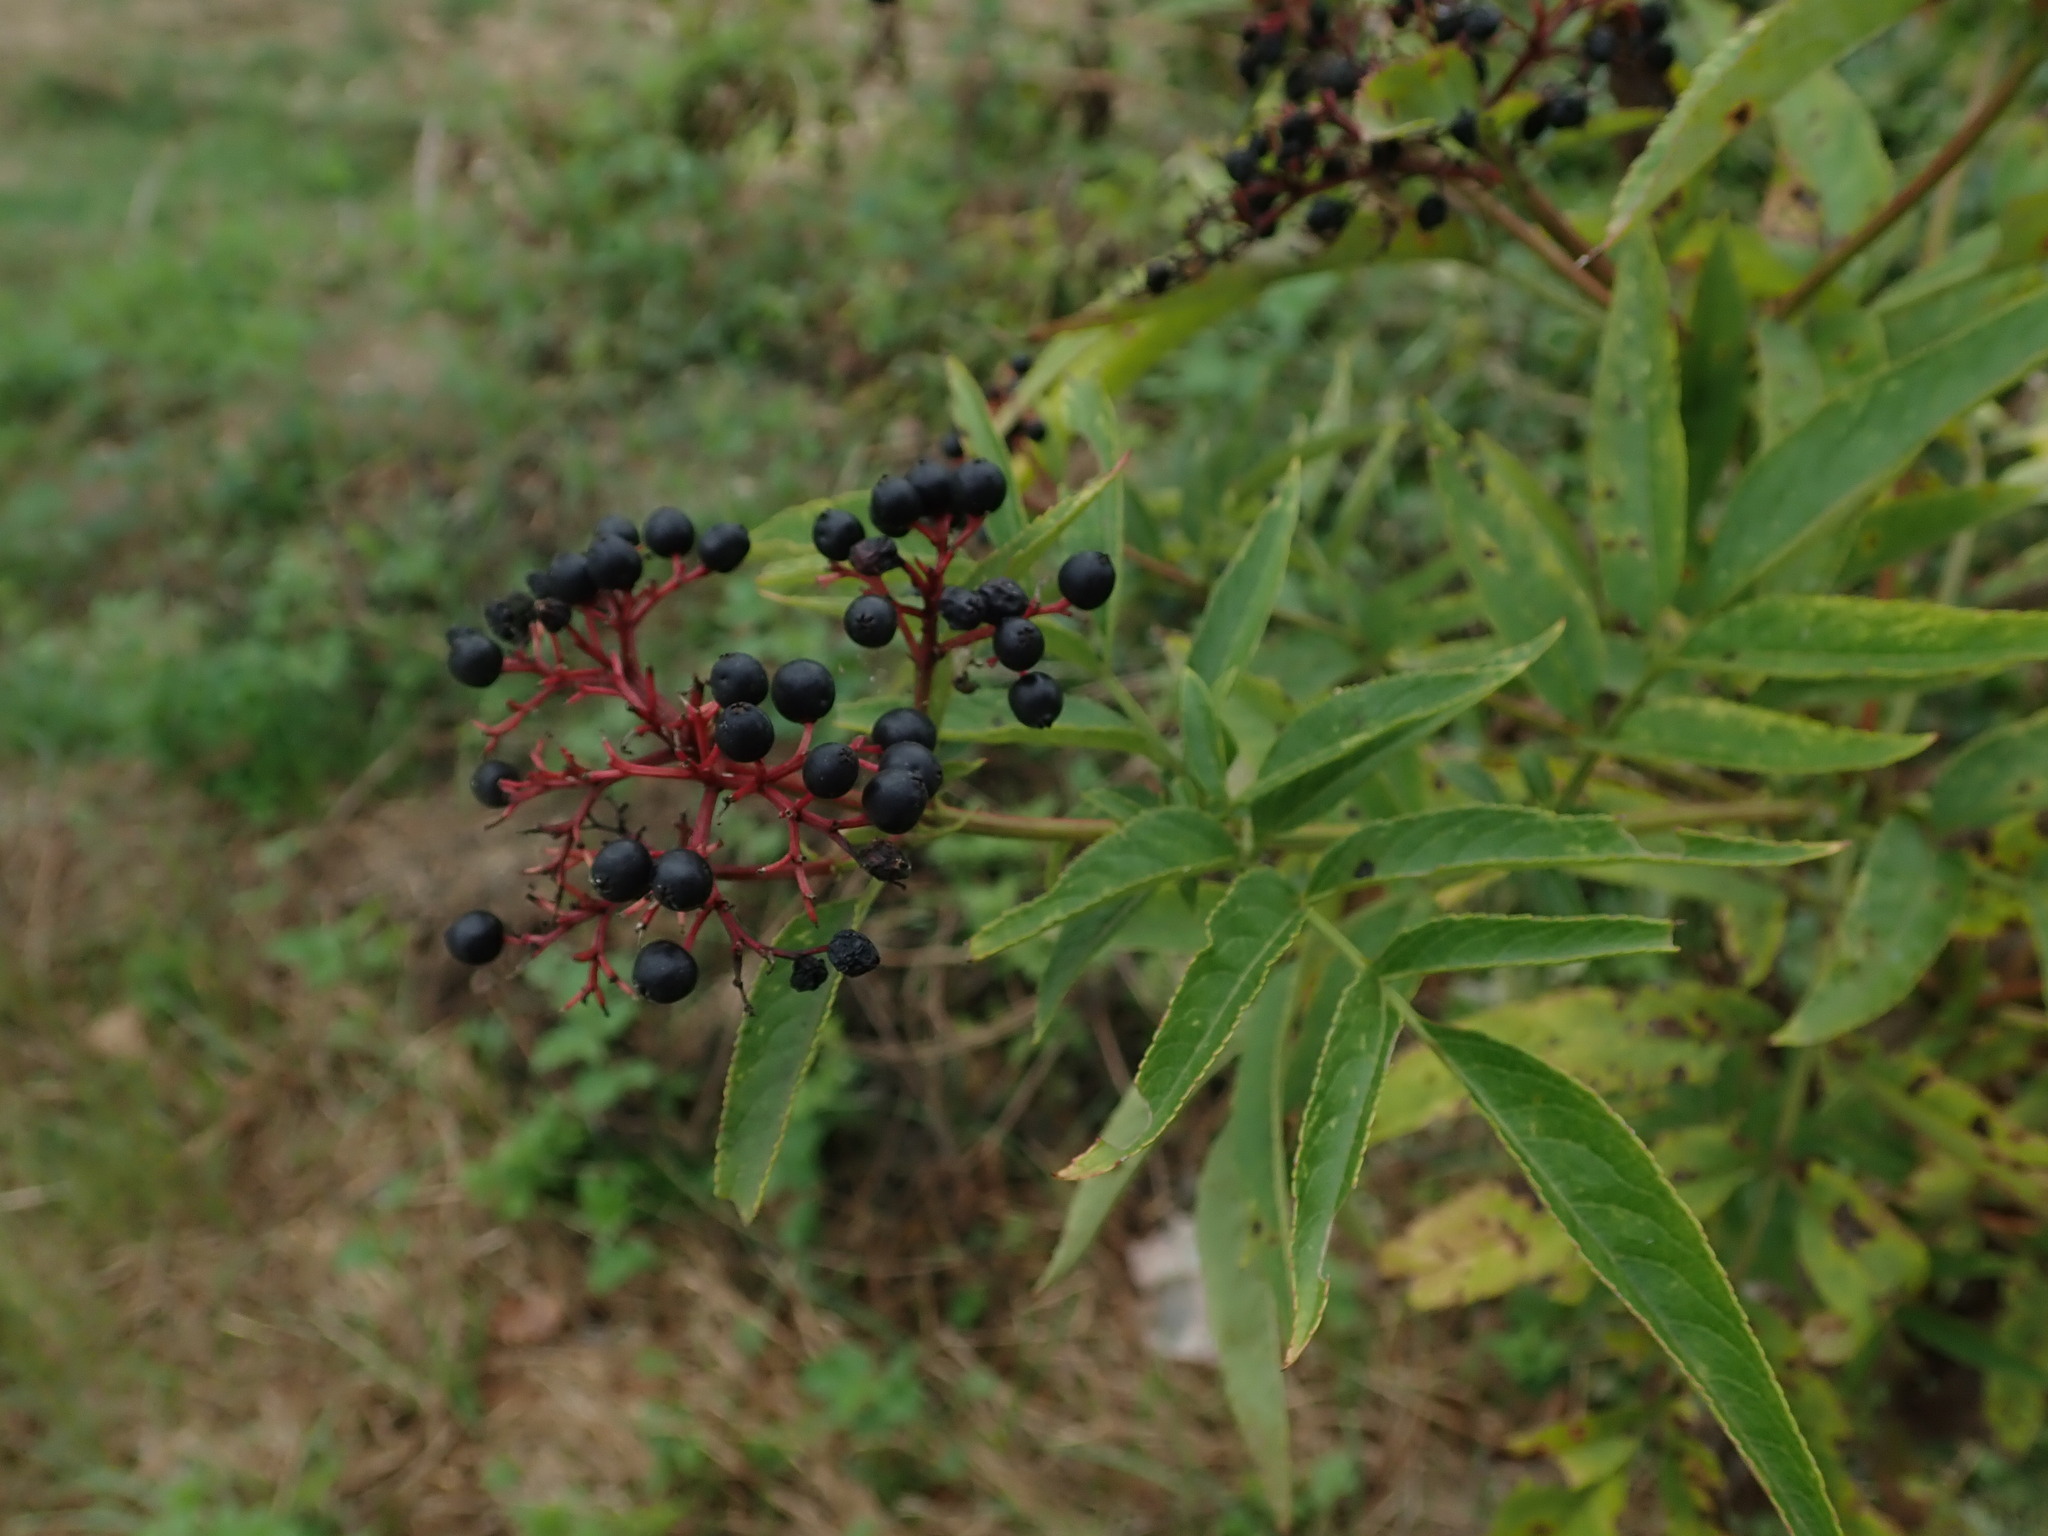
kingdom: Plantae
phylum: Tracheophyta
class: Magnoliopsida
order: Dipsacales
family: Viburnaceae
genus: Sambucus
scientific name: Sambucus ebulus
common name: Dwarf elder
